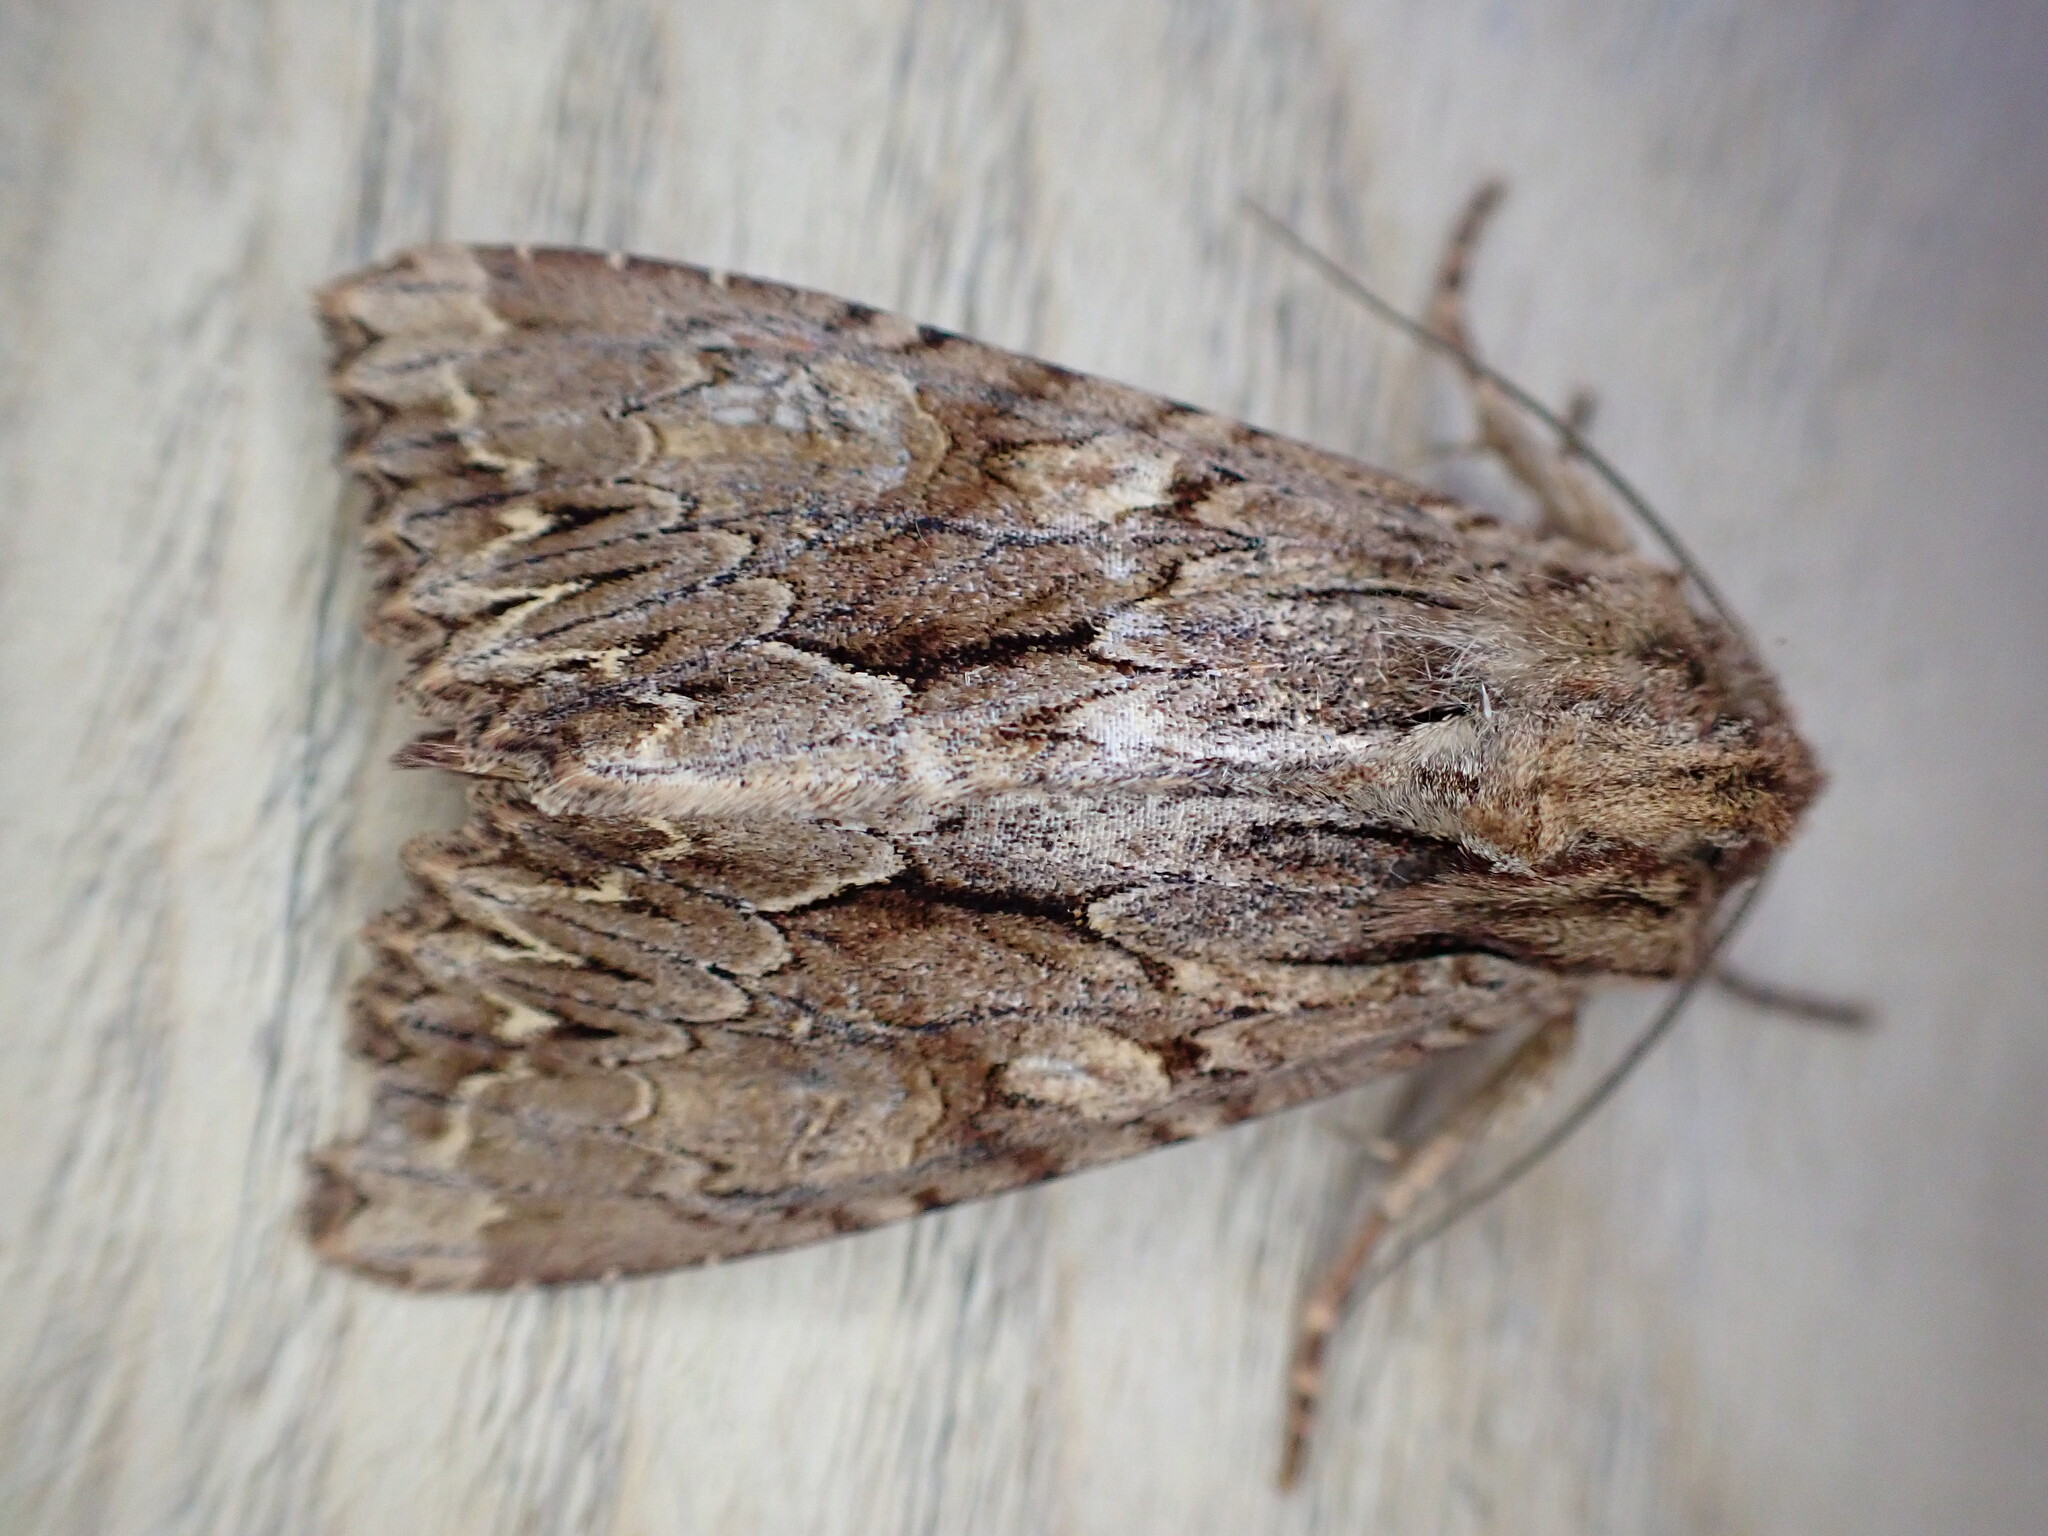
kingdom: Animalia
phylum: Arthropoda
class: Insecta
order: Lepidoptera
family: Noctuidae
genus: Apamea
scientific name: Apamea monoglypha
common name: Dark arches
